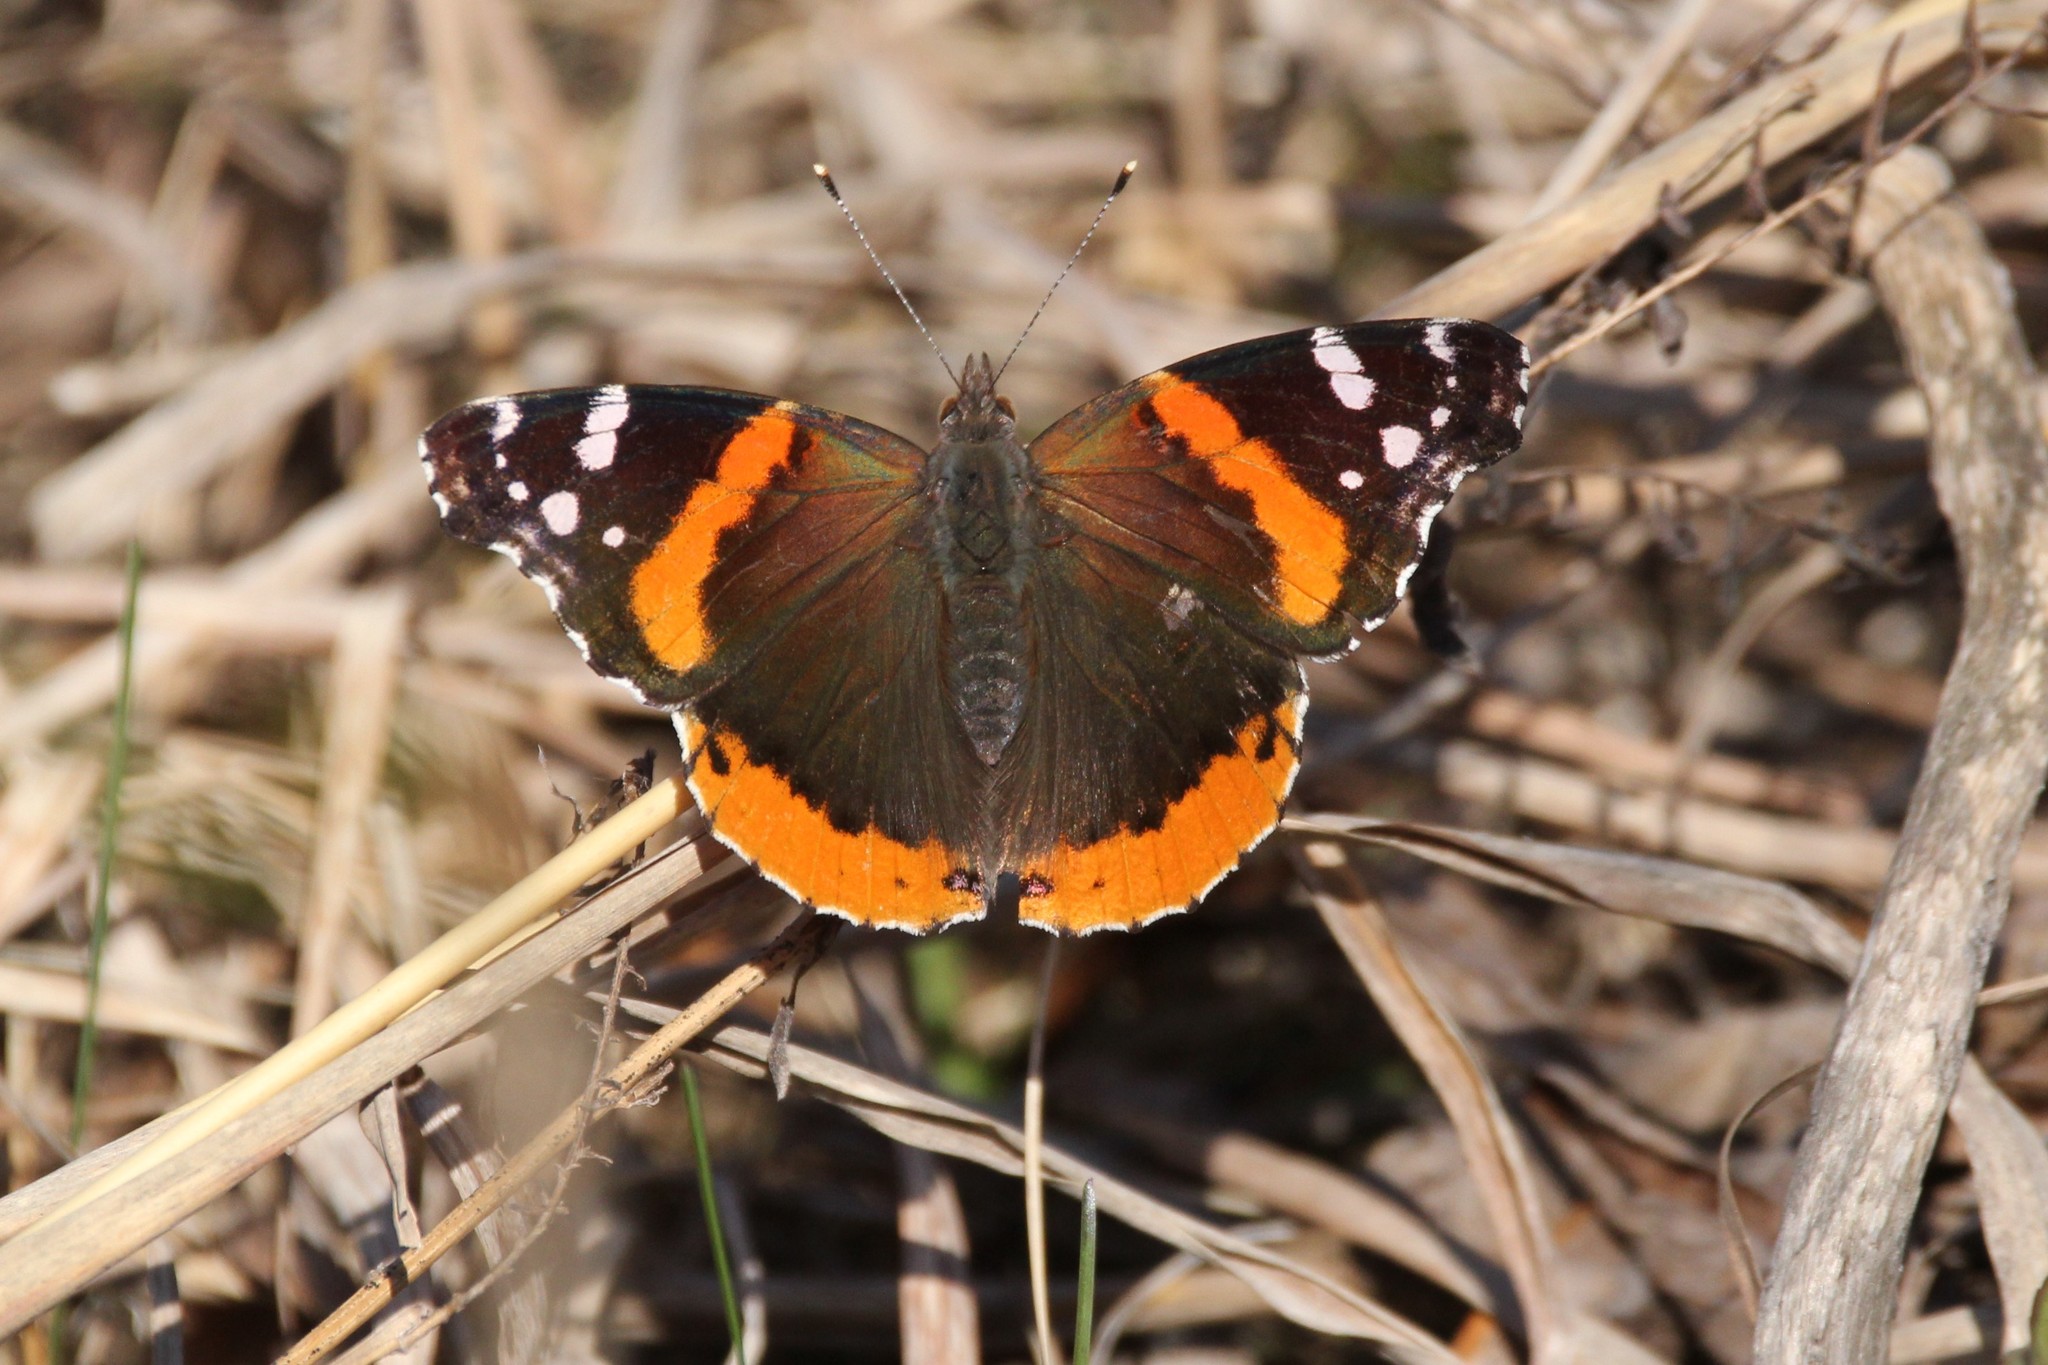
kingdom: Animalia
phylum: Arthropoda
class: Insecta
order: Lepidoptera
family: Nymphalidae
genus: Vanessa
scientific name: Vanessa atalanta
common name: Red admiral
